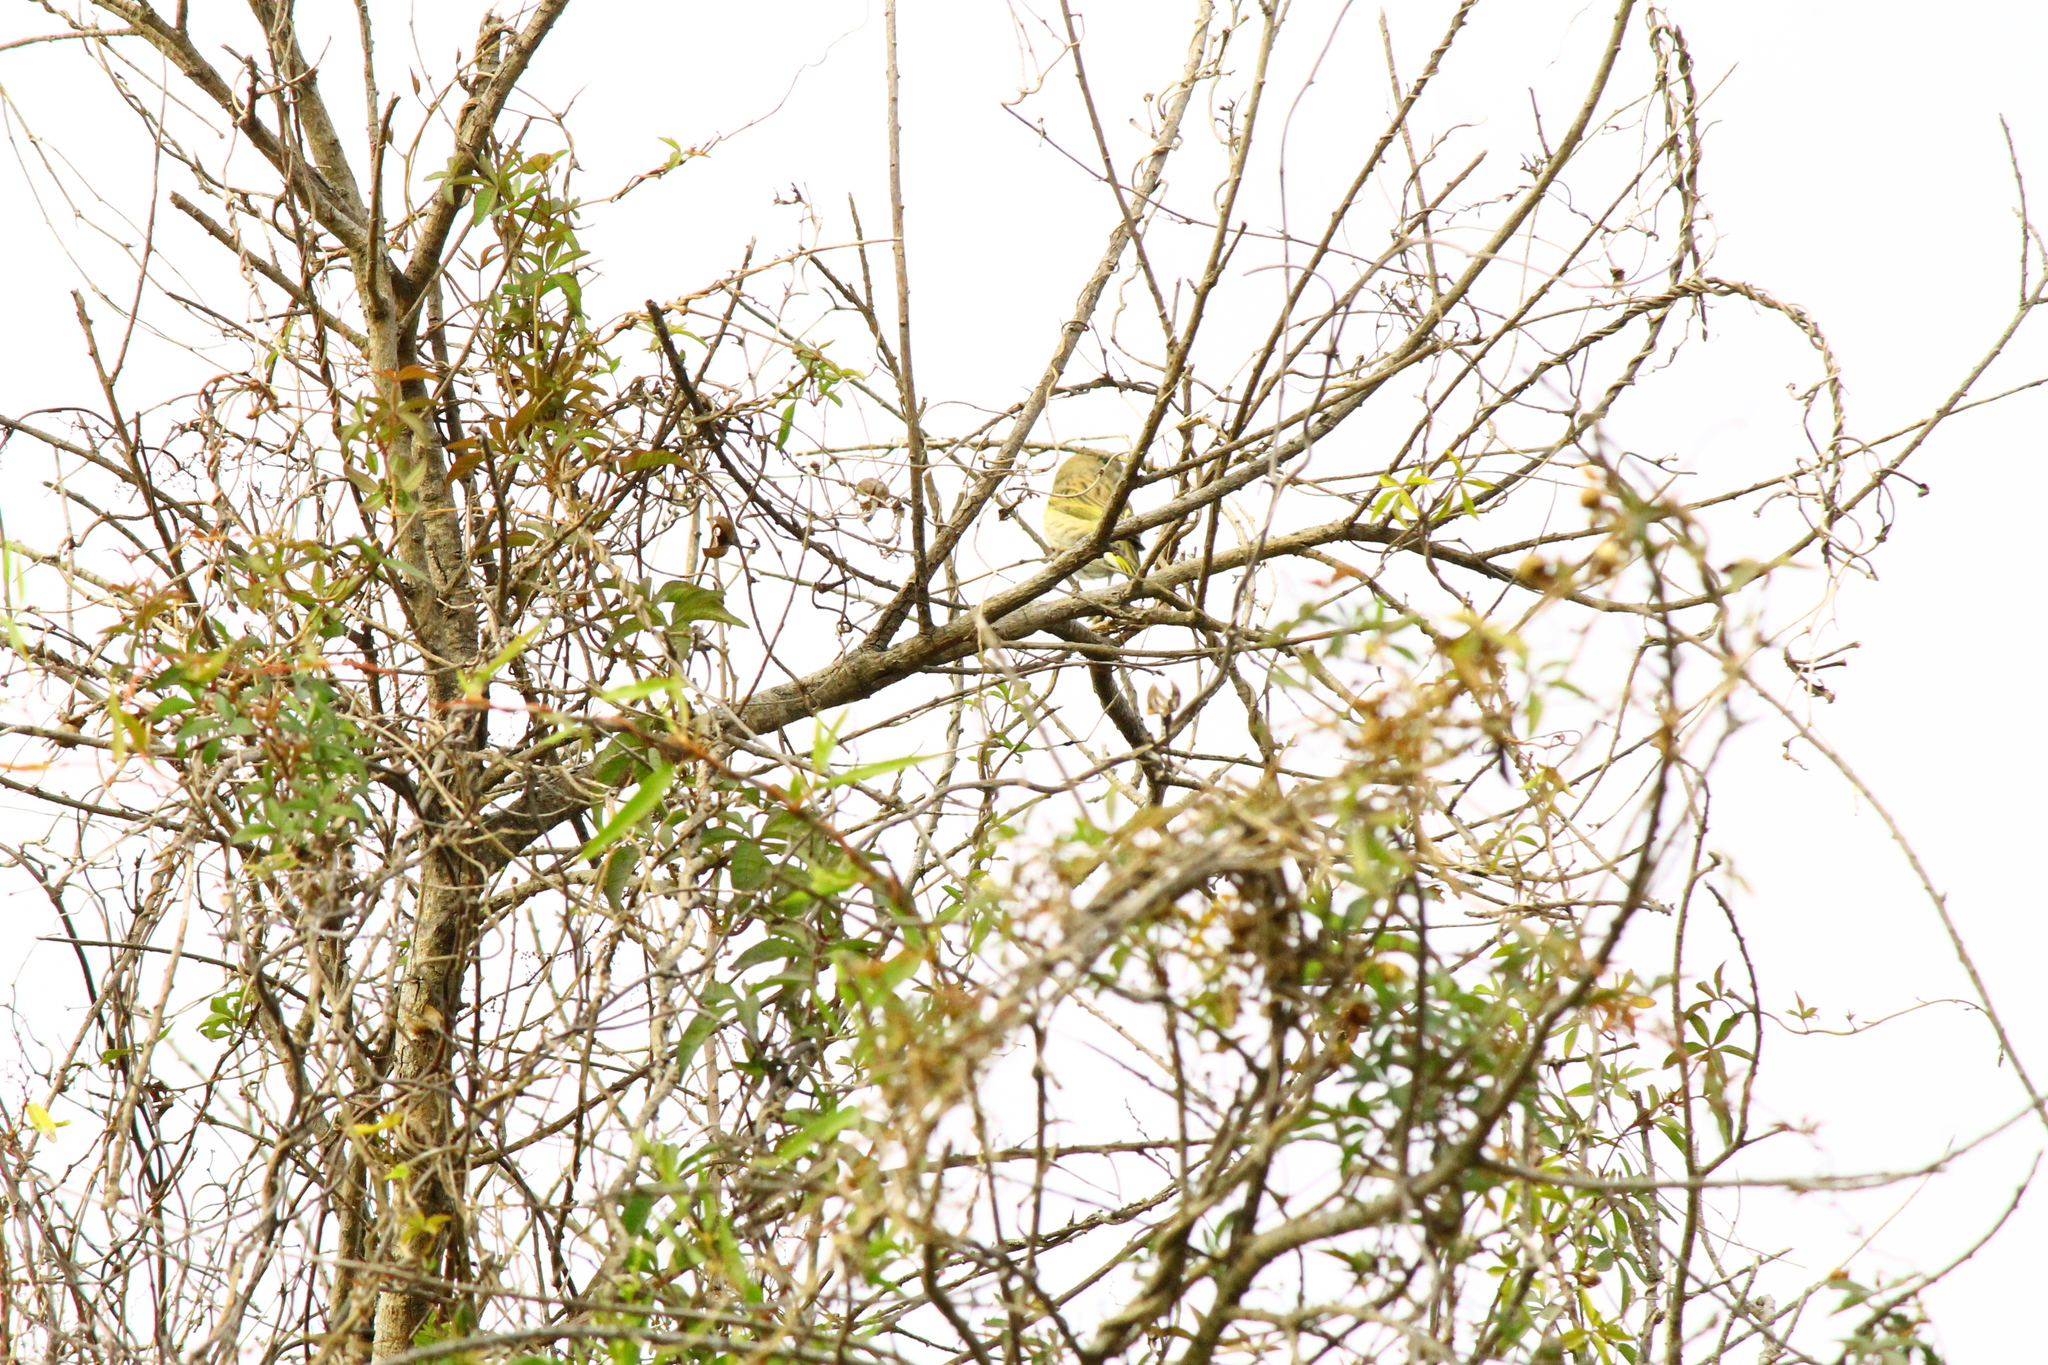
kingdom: Animalia
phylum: Chordata
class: Aves
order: Passeriformes
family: Thraupidae
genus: Sicalis
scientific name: Sicalis flaveola
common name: Saffron finch
